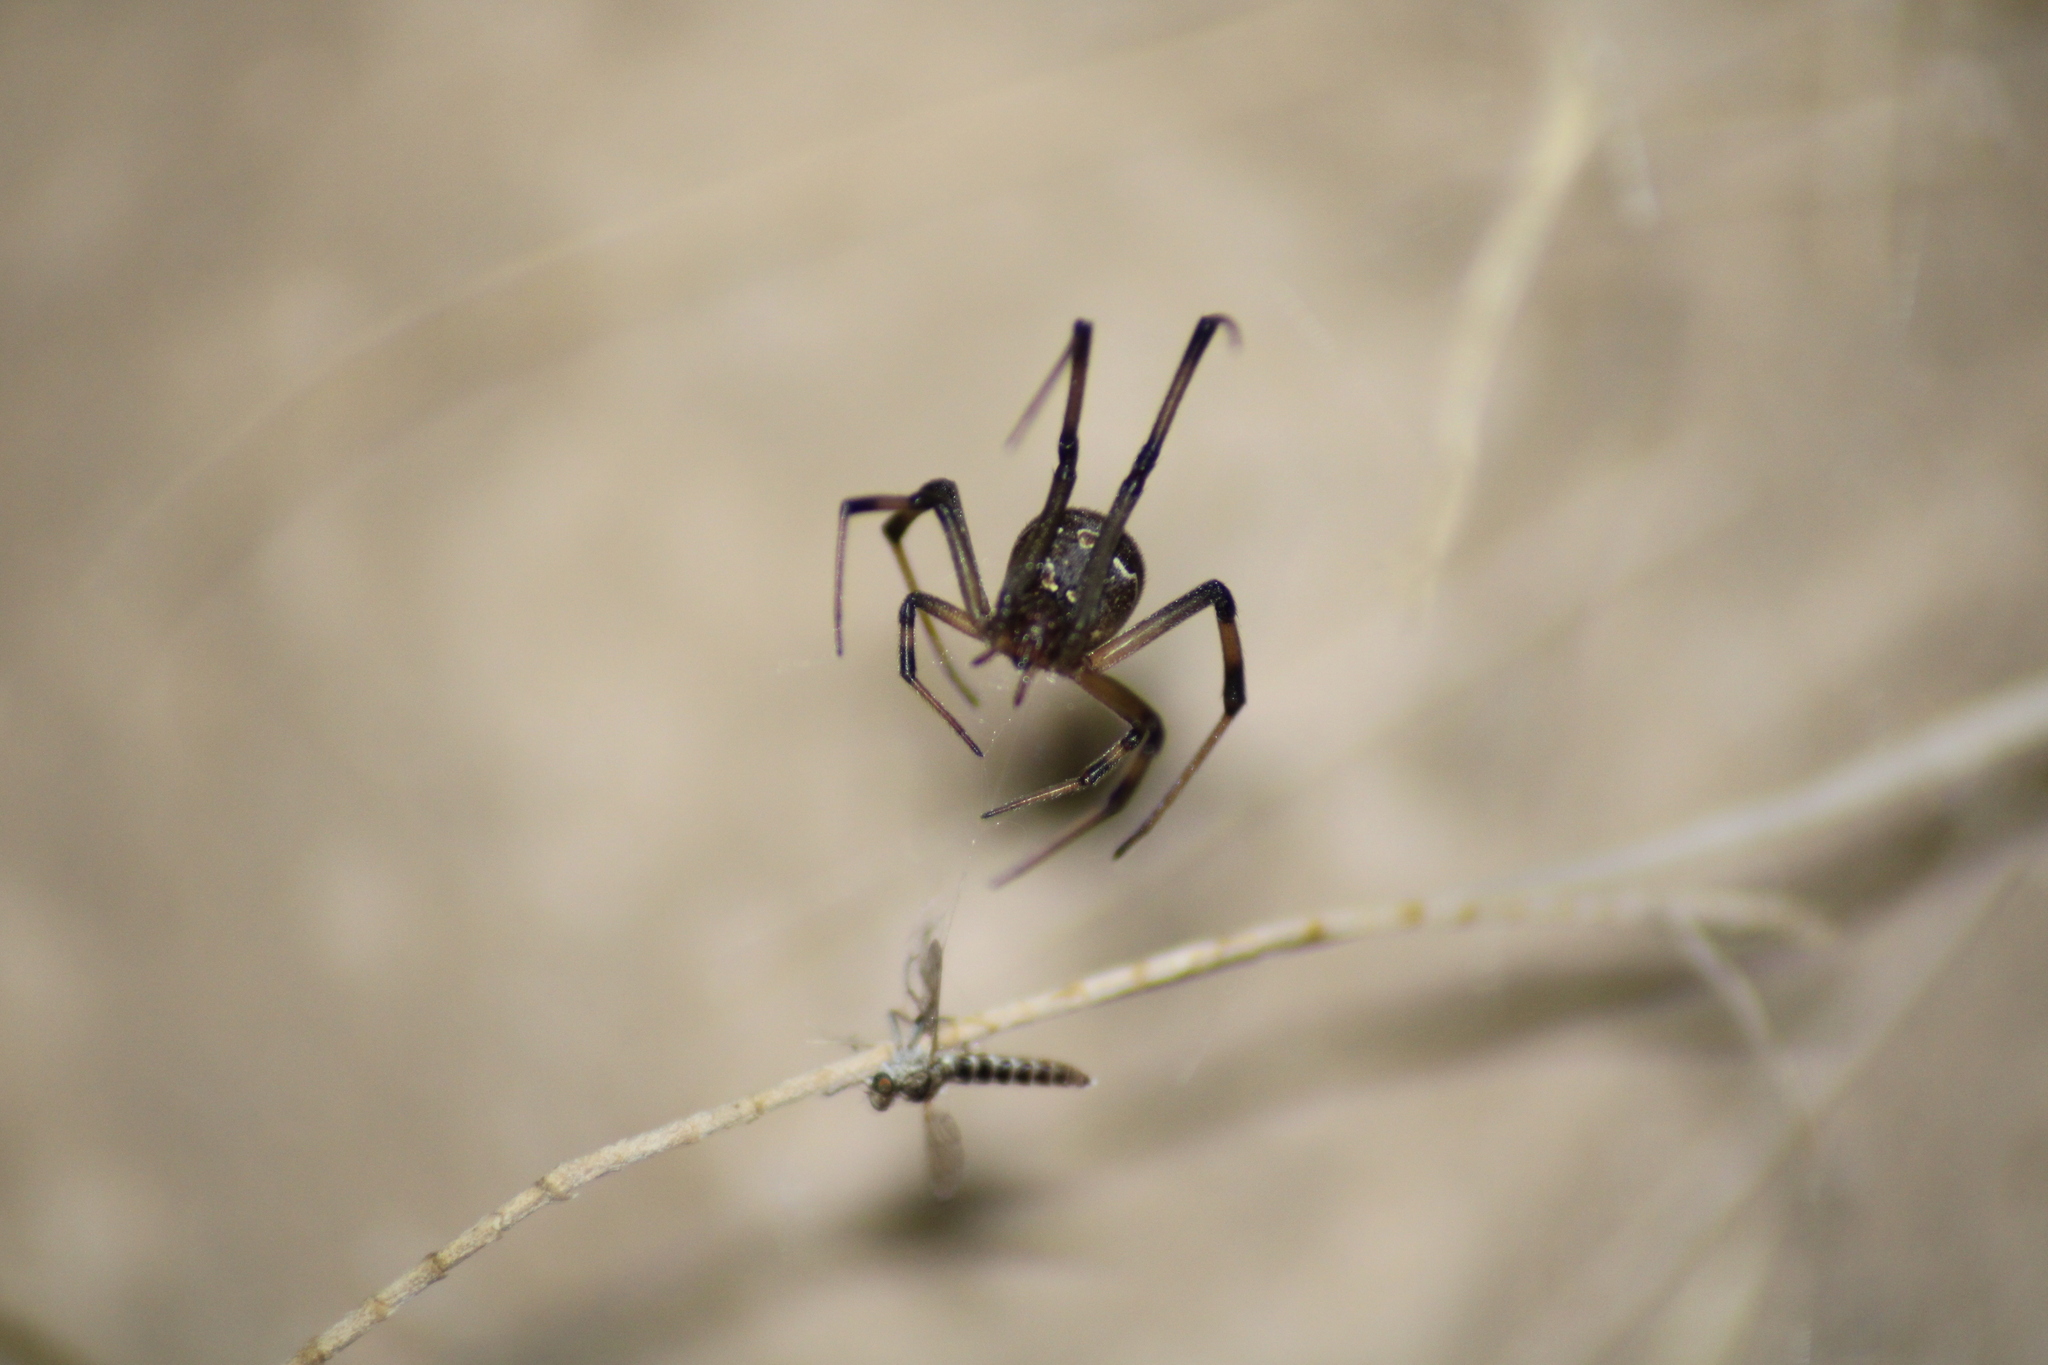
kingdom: Animalia
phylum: Arthropoda
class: Arachnida
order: Araneae
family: Theridiidae
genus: Latrodectus
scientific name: Latrodectus geometricus
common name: Brown widow spider
